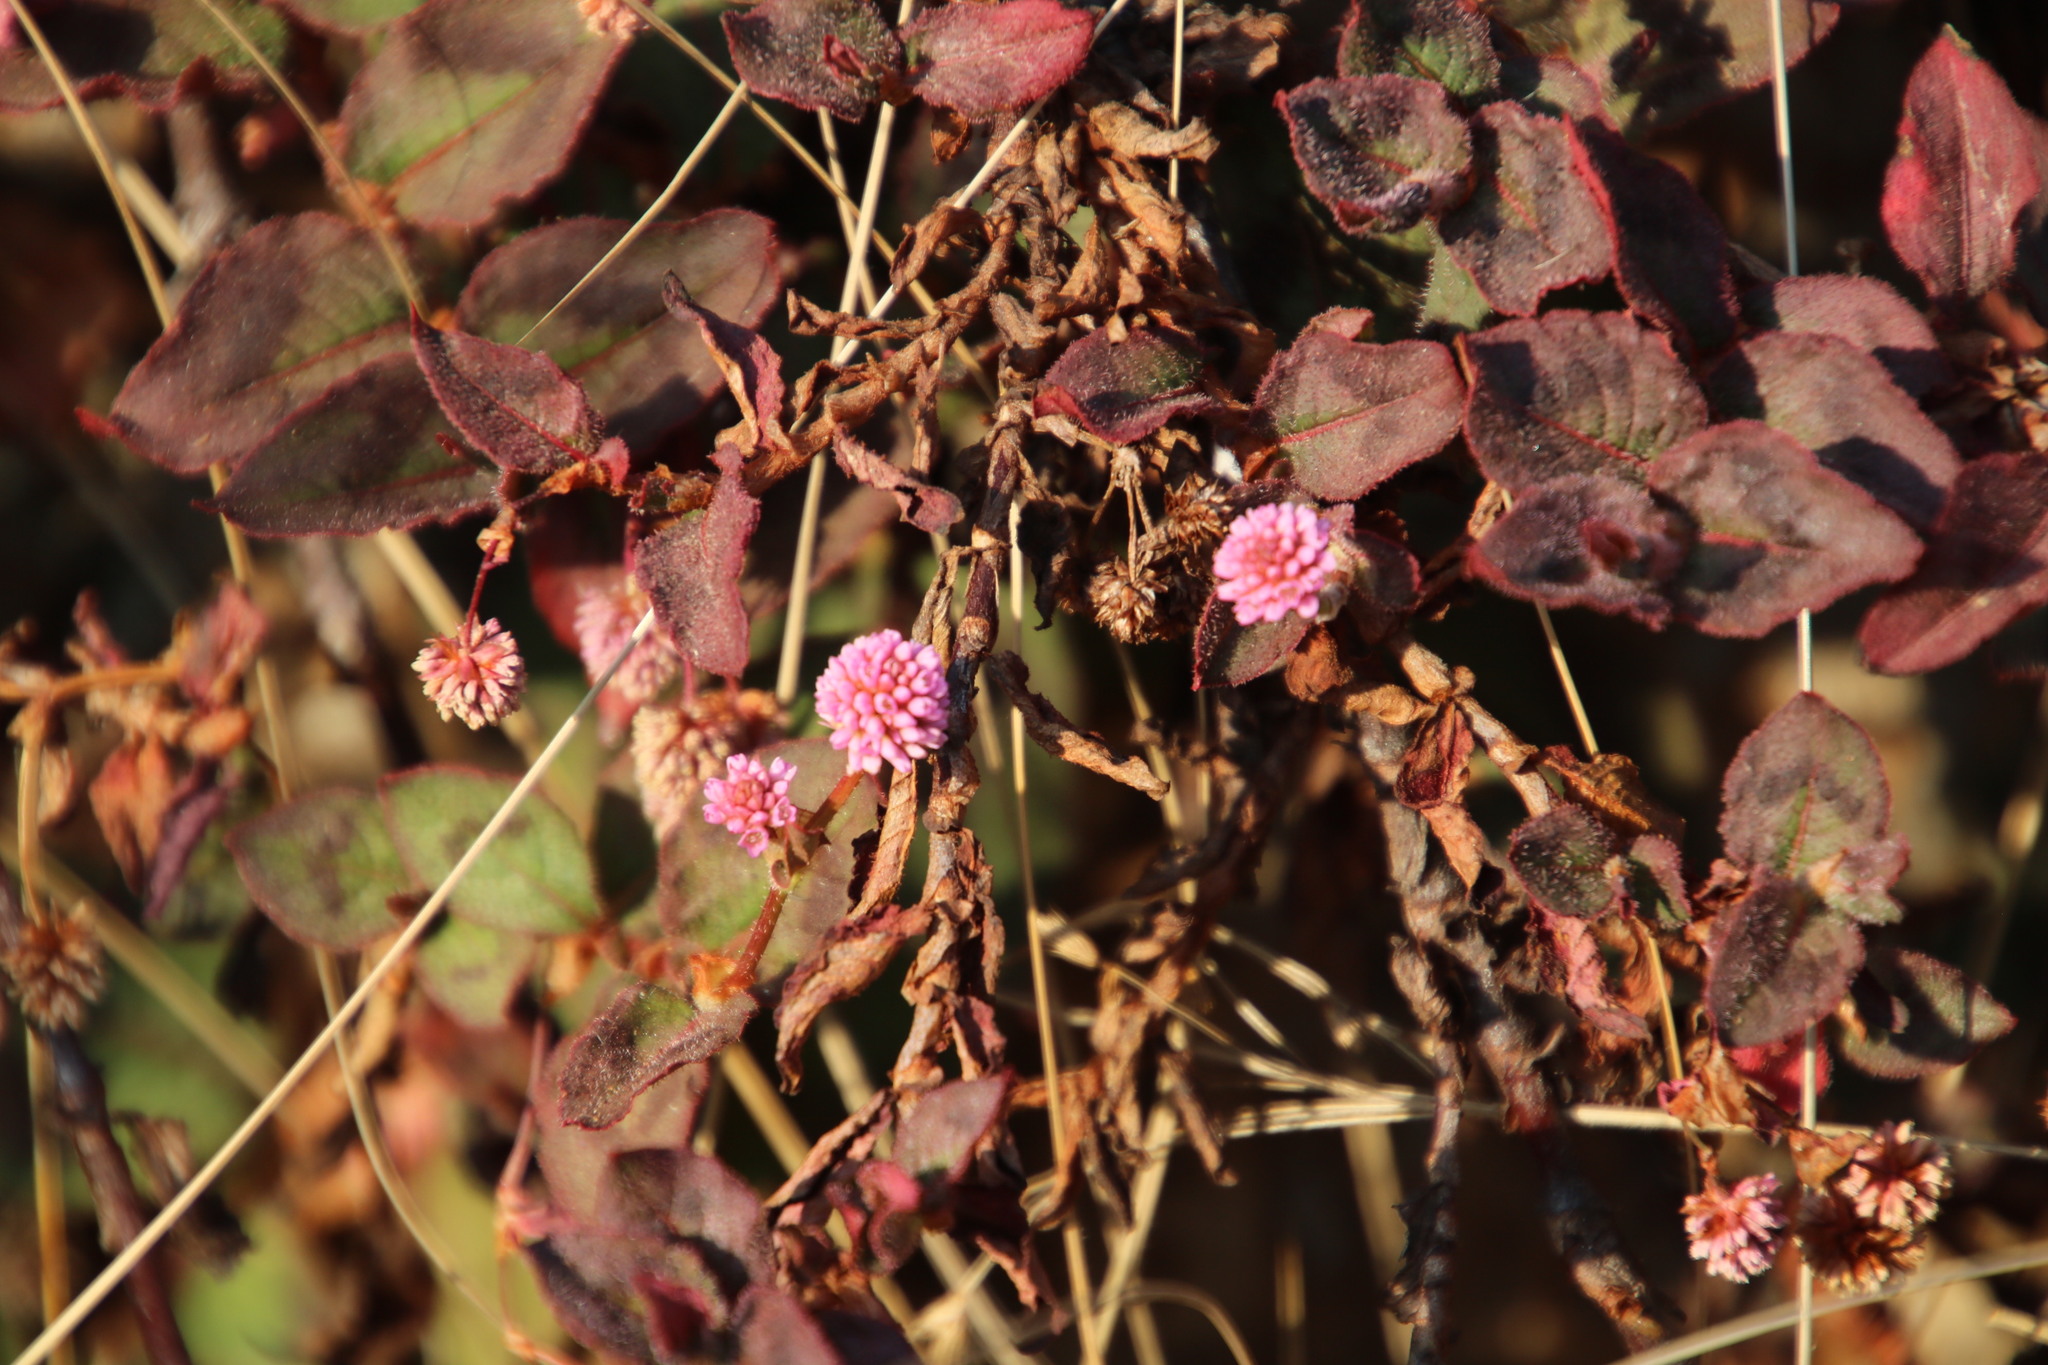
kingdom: Plantae
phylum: Tracheophyta
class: Magnoliopsida
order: Caryophyllales
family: Polygonaceae
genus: Persicaria
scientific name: Persicaria capitata
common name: Pinkhead smartweed
